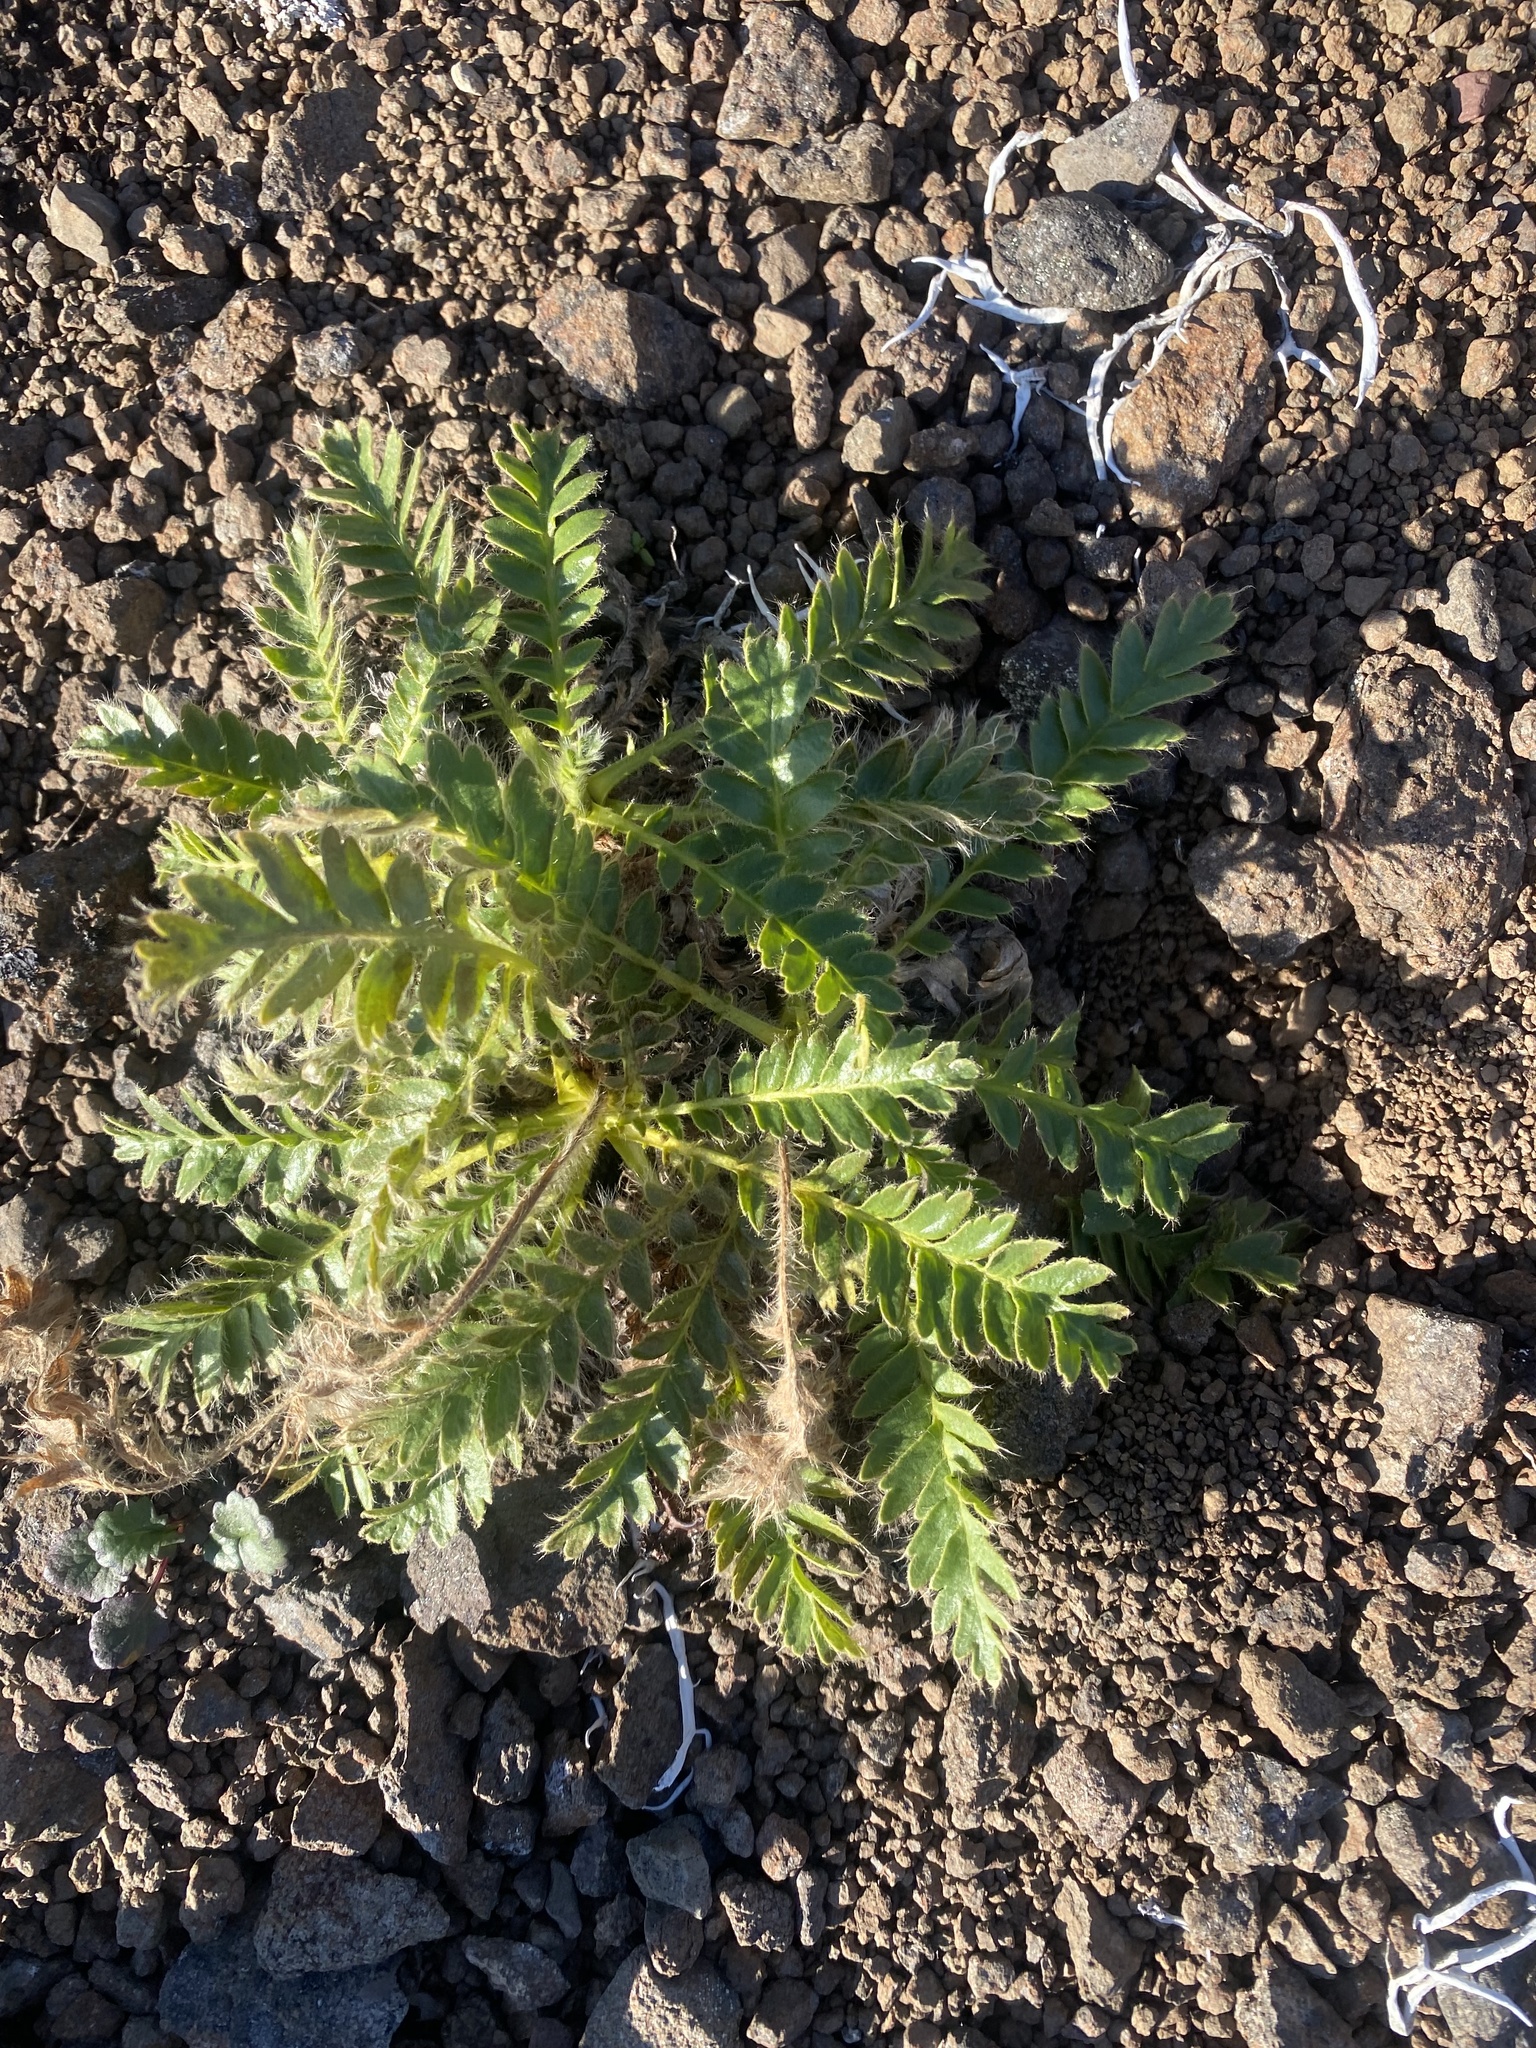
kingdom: Plantae
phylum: Tracheophyta
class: Magnoliopsida
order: Rosales
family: Rosaceae
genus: Geum
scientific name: Geum glaciale
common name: Glacier avens
